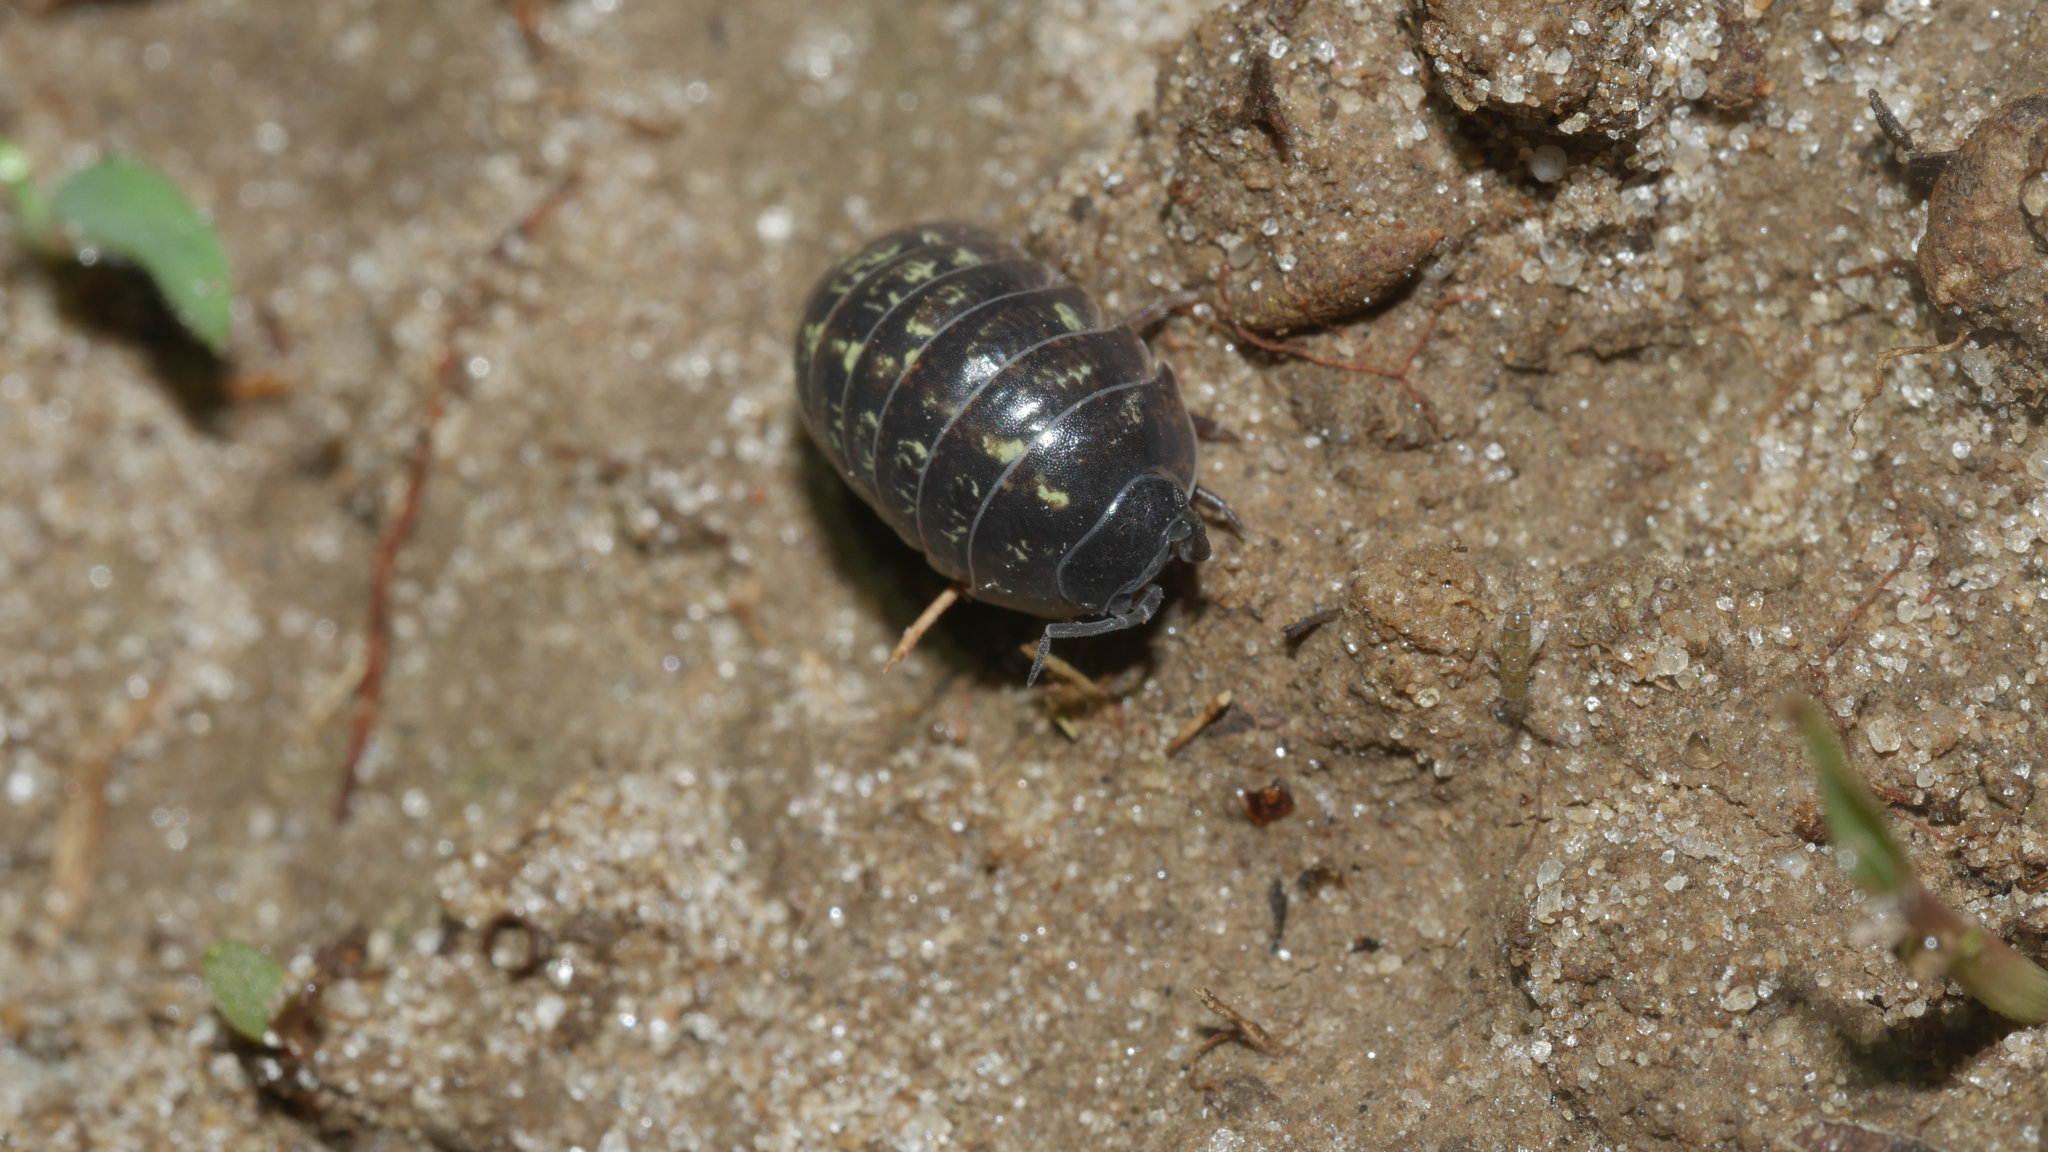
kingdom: Animalia
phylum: Arthropoda
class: Malacostraca
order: Isopoda
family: Armadillidiidae
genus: Armadillidium
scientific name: Armadillidium vulgare
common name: Common pill woodlouse
